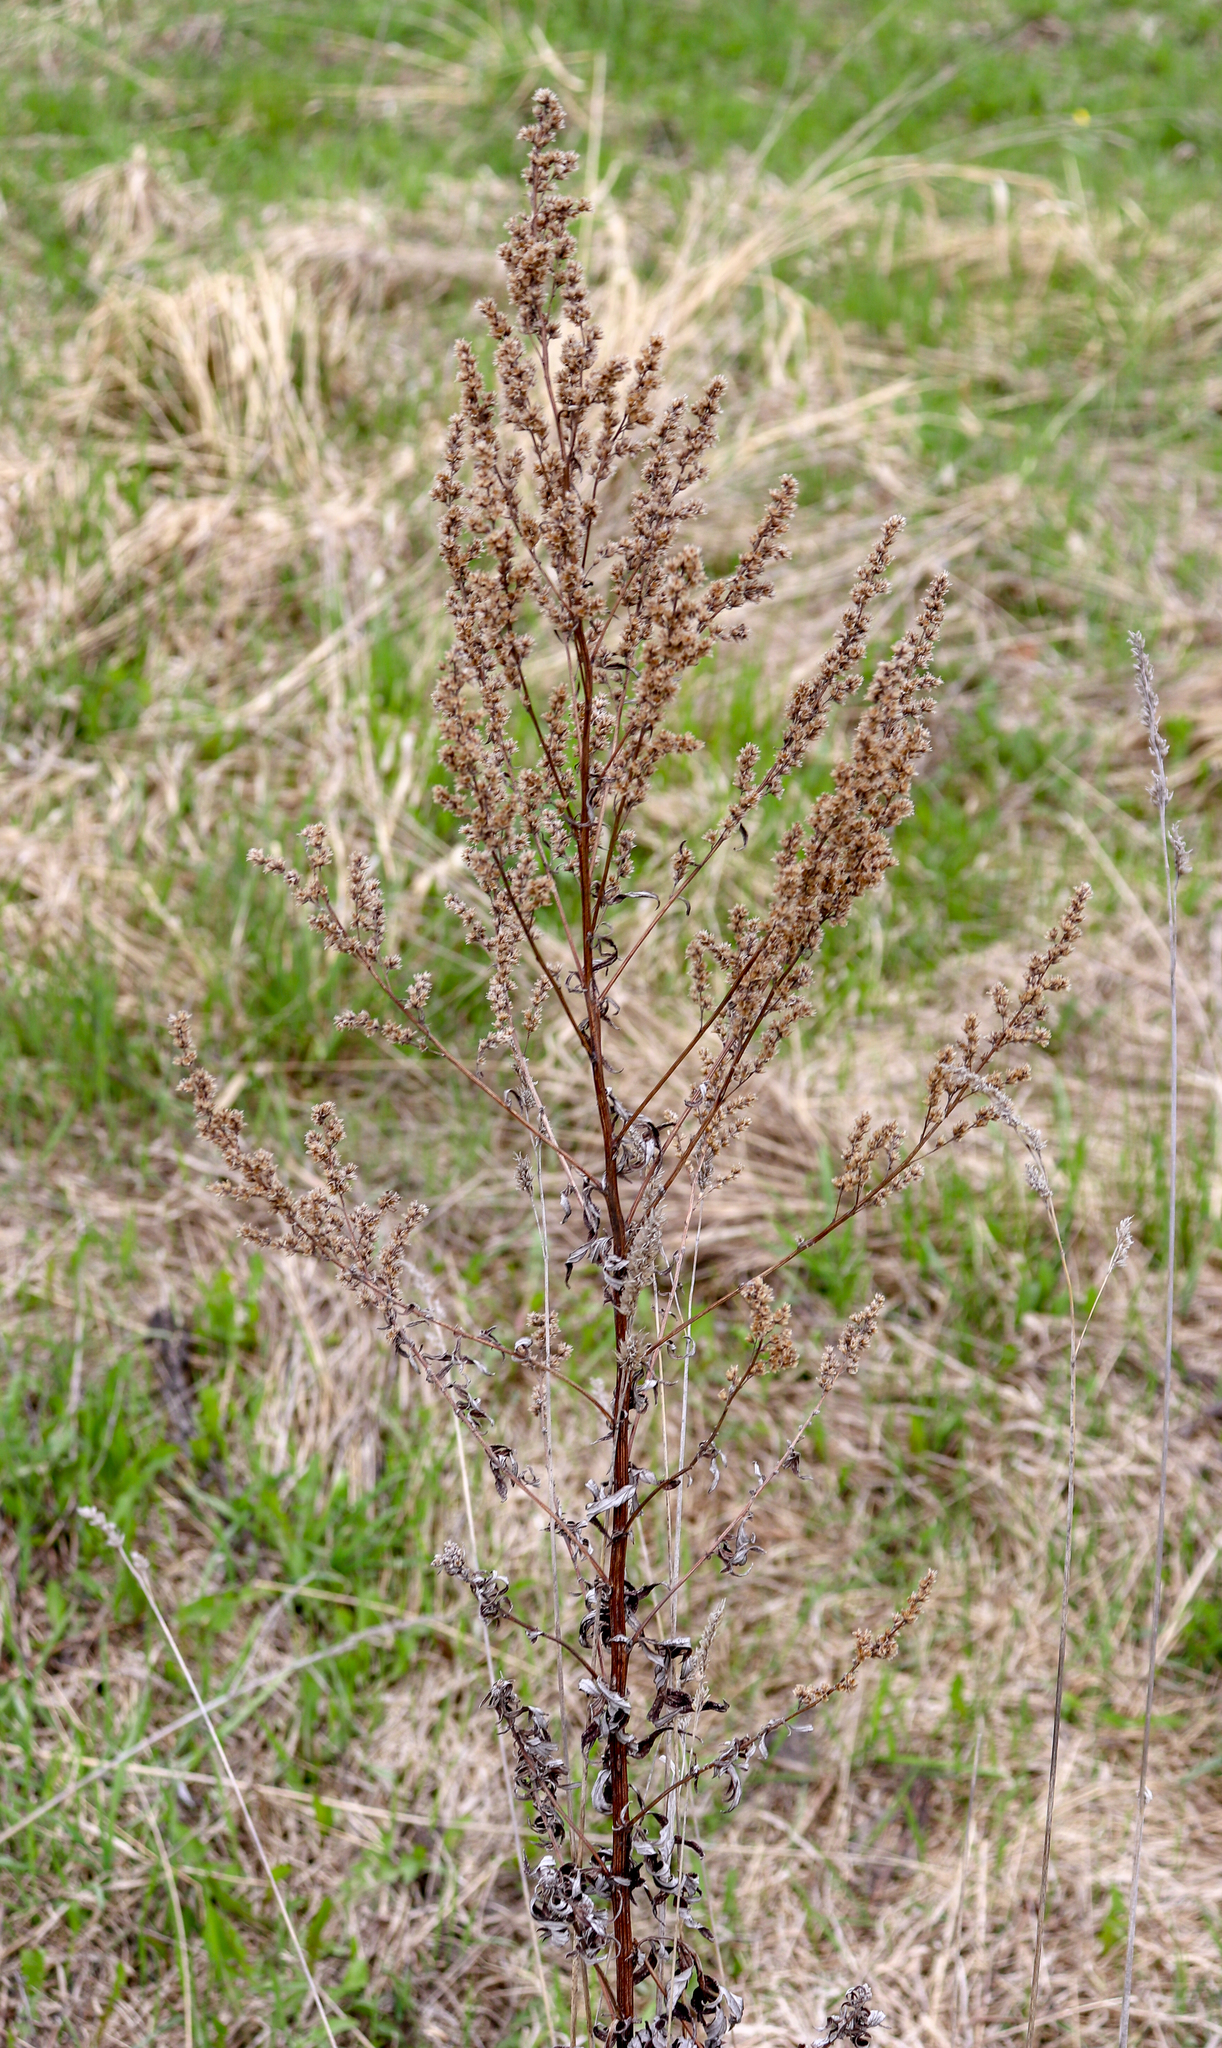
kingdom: Plantae
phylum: Tracheophyta
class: Magnoliopsida
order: Asterales
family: Asteraceae
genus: Artemisia
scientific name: Artemisia vulgaris
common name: Mugwort
